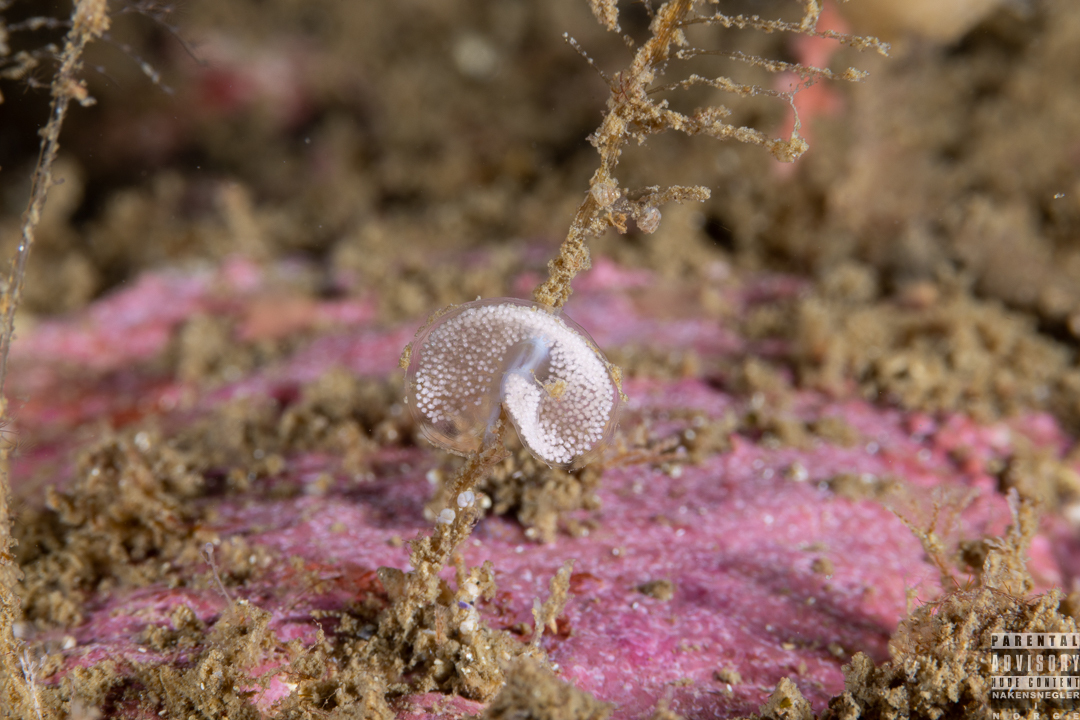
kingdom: Animalia
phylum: Mollusca
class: Gastropoda
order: Nudibranchia
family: Eubranchidae
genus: Eubranchus
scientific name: Eubranchus tricolor
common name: Painted balloon aeolis
